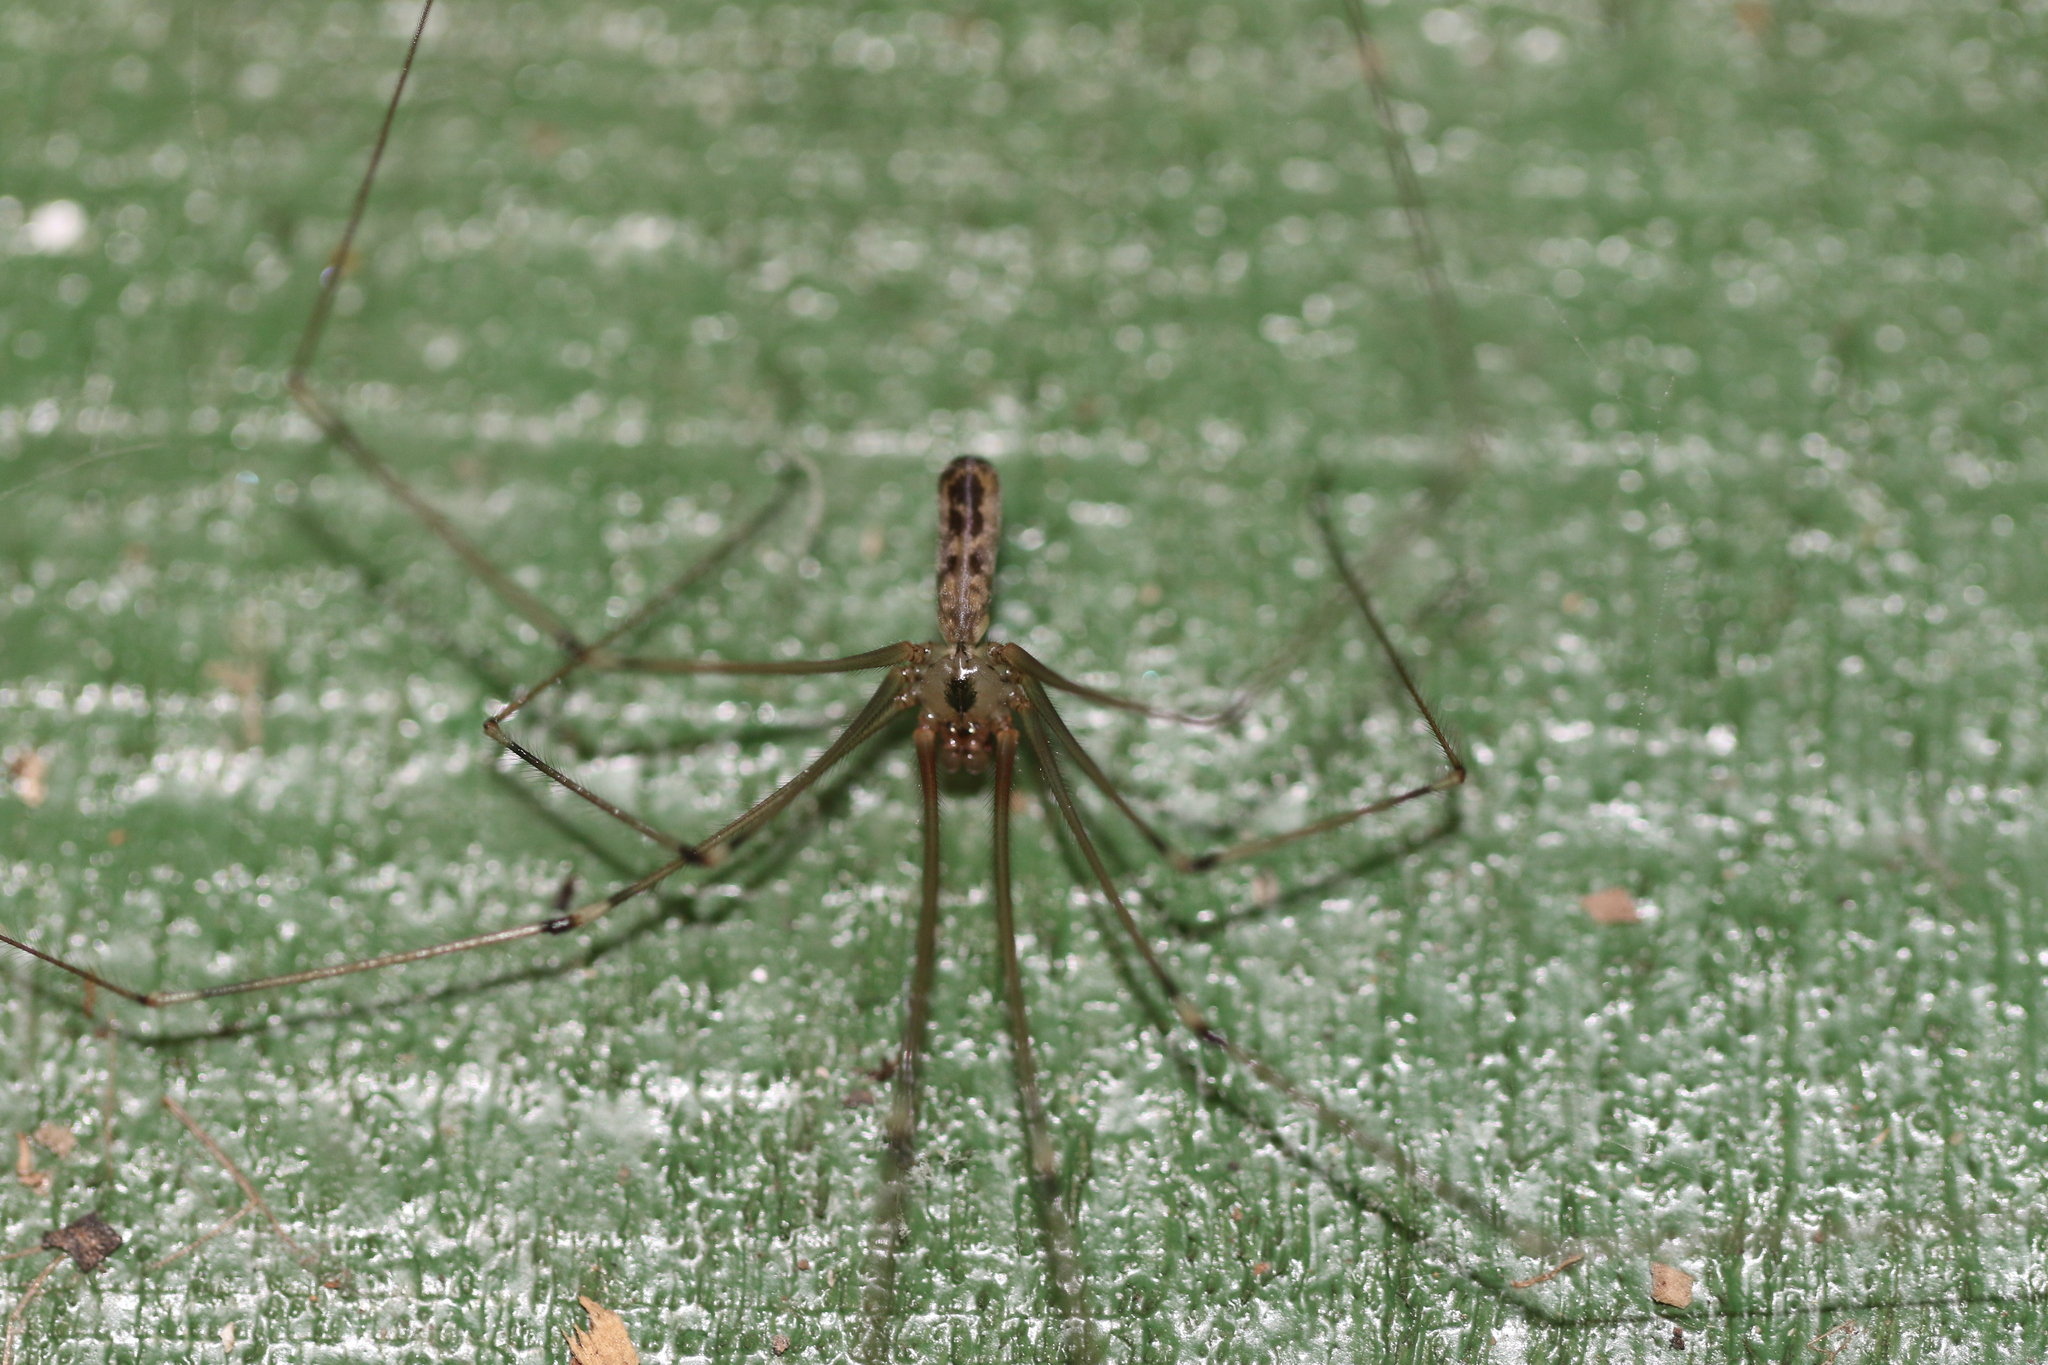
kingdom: Animalia
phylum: Arthropoda
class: Arachnida
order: Araneae
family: Pholcidae
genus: Pholcus
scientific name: Pholcus phalangioides
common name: Longbodied cellar spider
